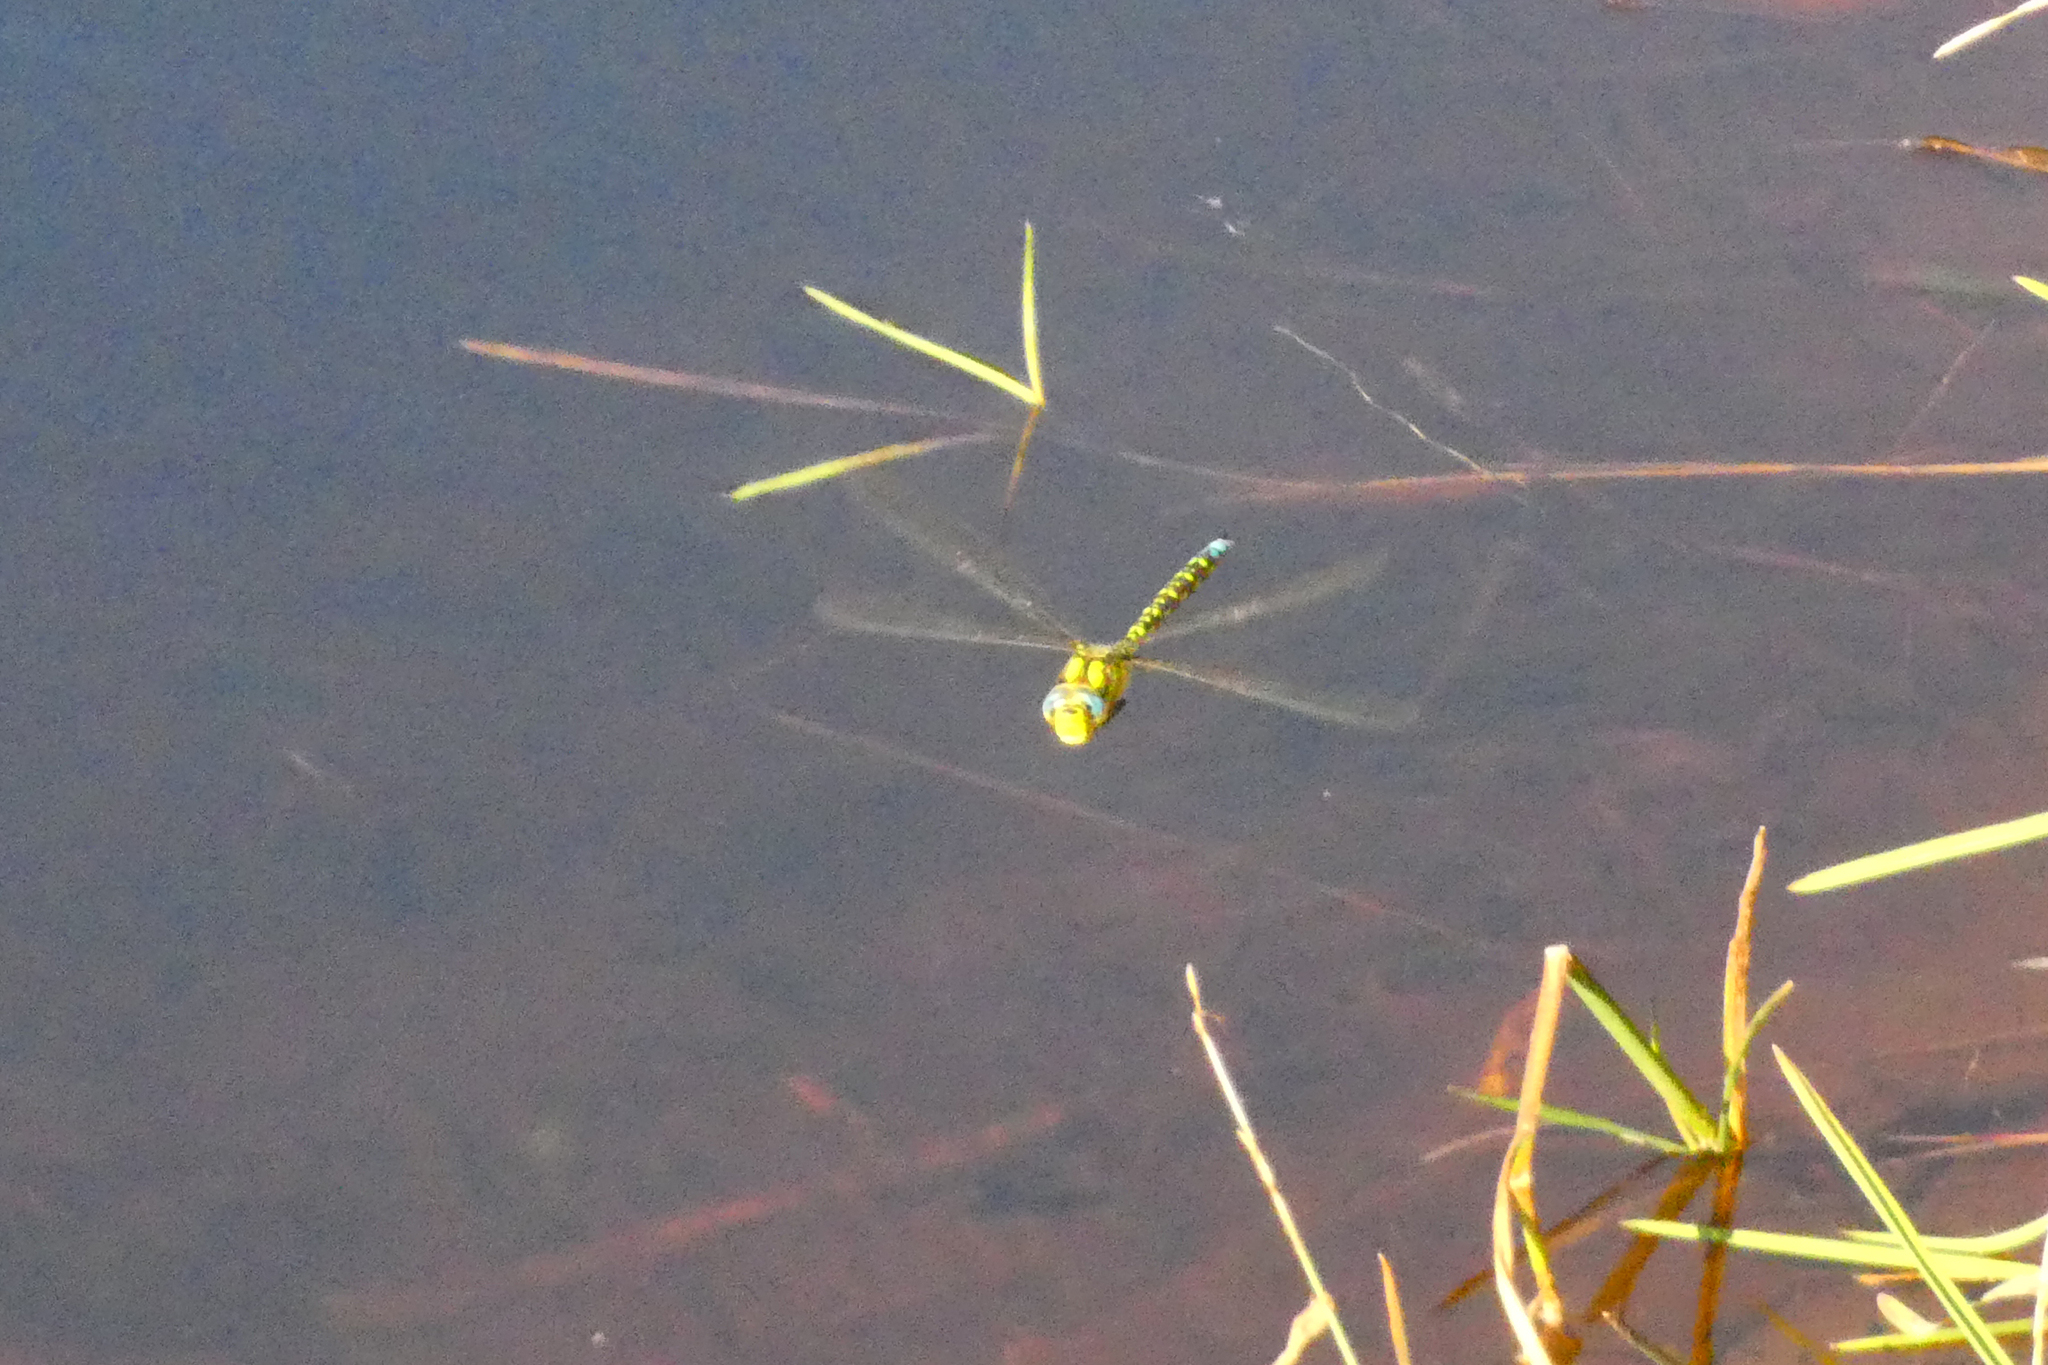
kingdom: Animalia
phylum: Arthropoda
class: Insecta
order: Odonata
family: Aeshnidae
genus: Aeshna
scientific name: Aeshna cyanea
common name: Southern hawker
